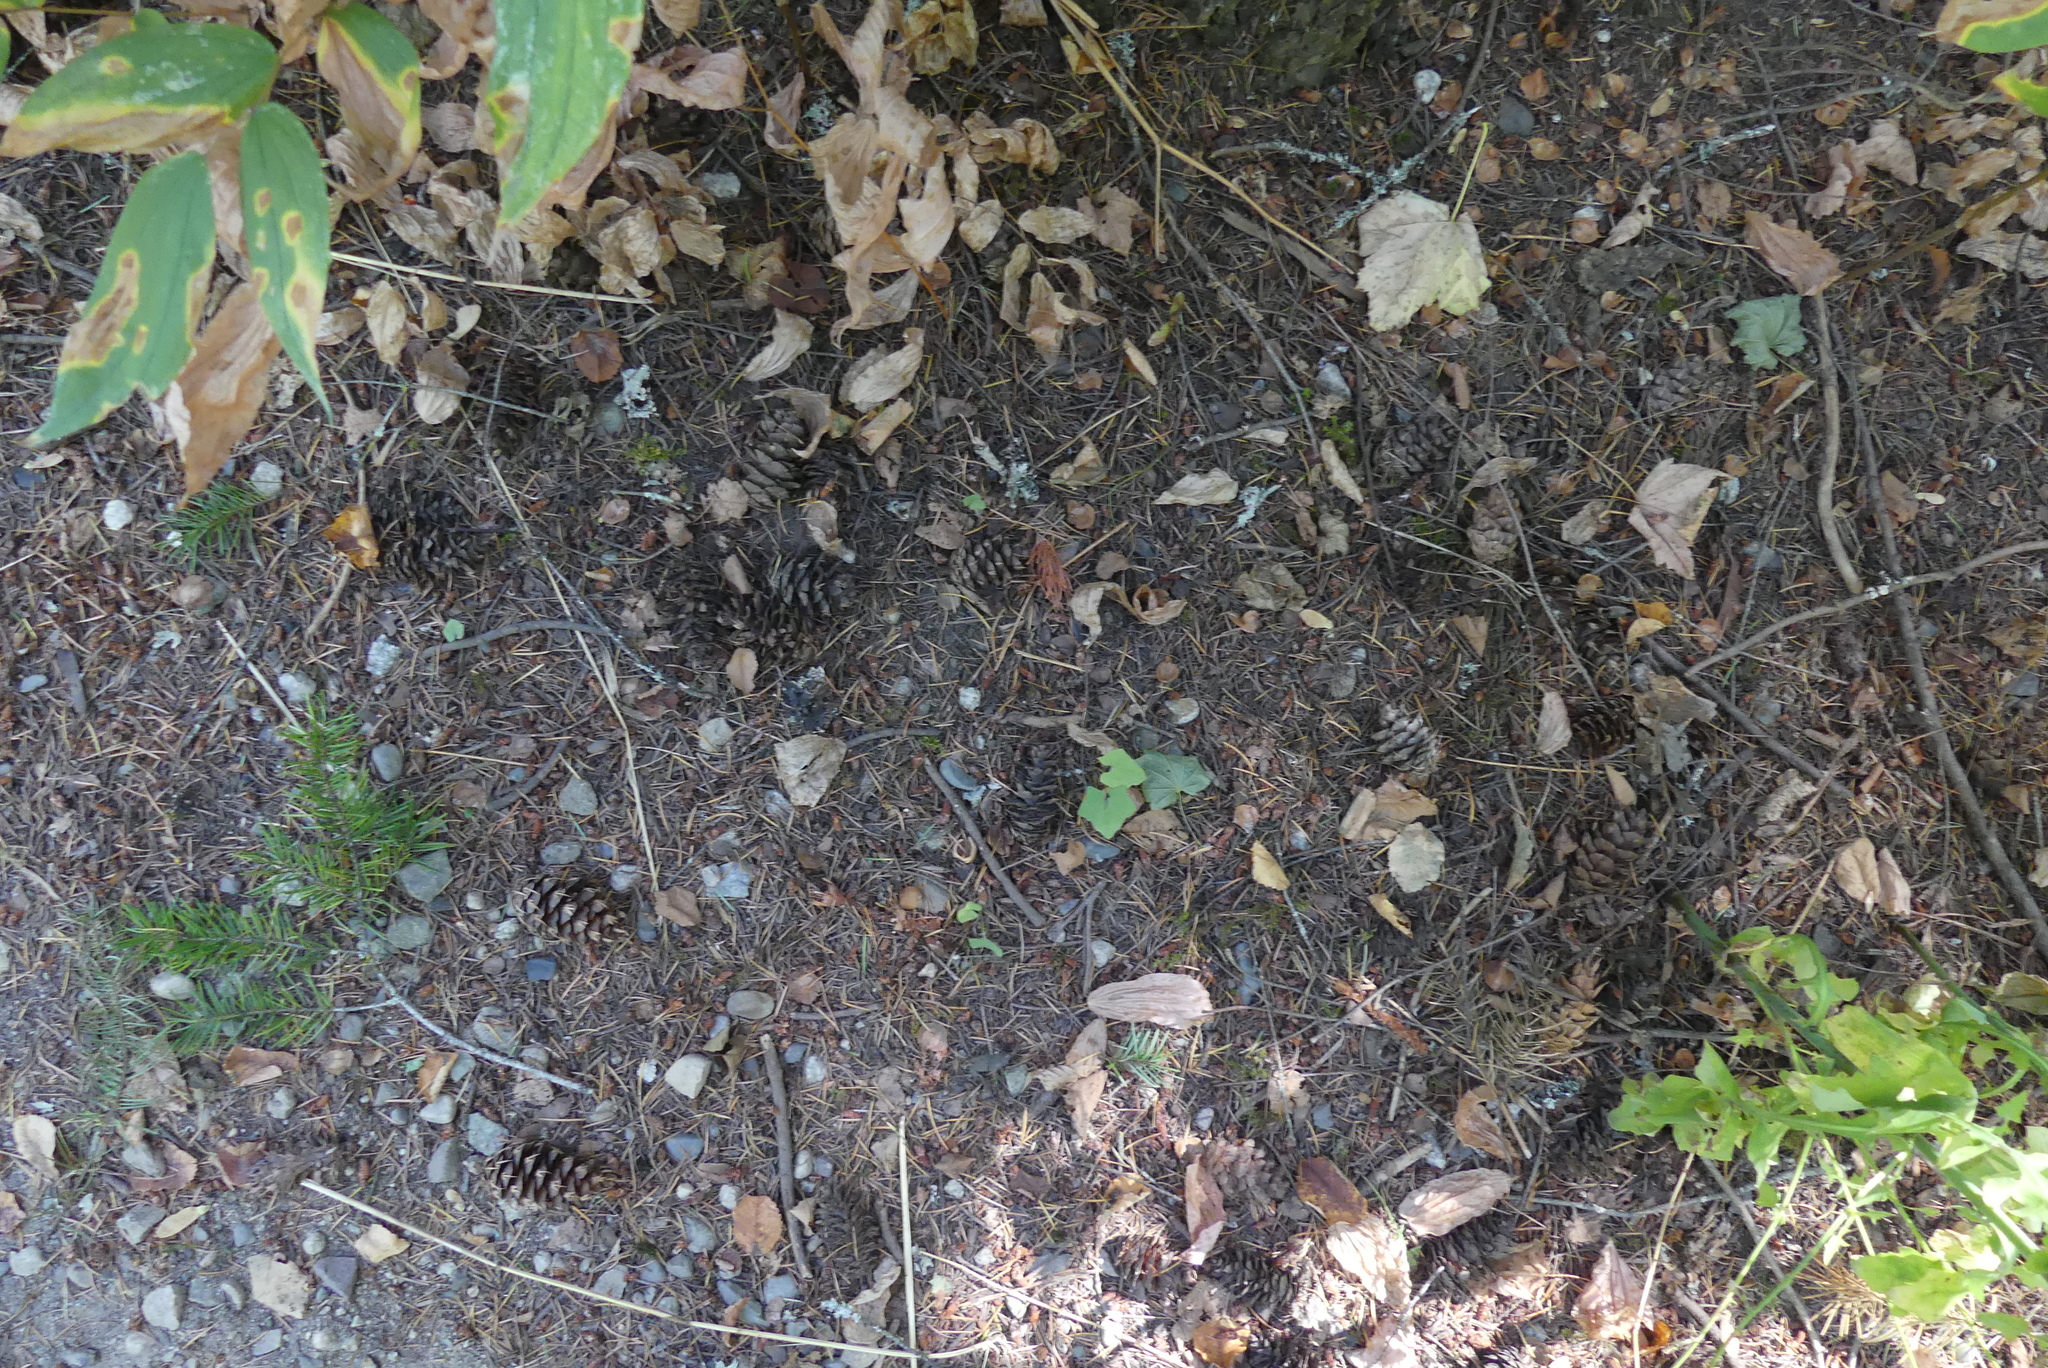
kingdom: Plantae
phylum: Tracheophyta
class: Pinopsida
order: Pinales
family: Pinaceae
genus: Pseudotsuga
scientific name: Pseudotsuga menziesii
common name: Douglas fir
